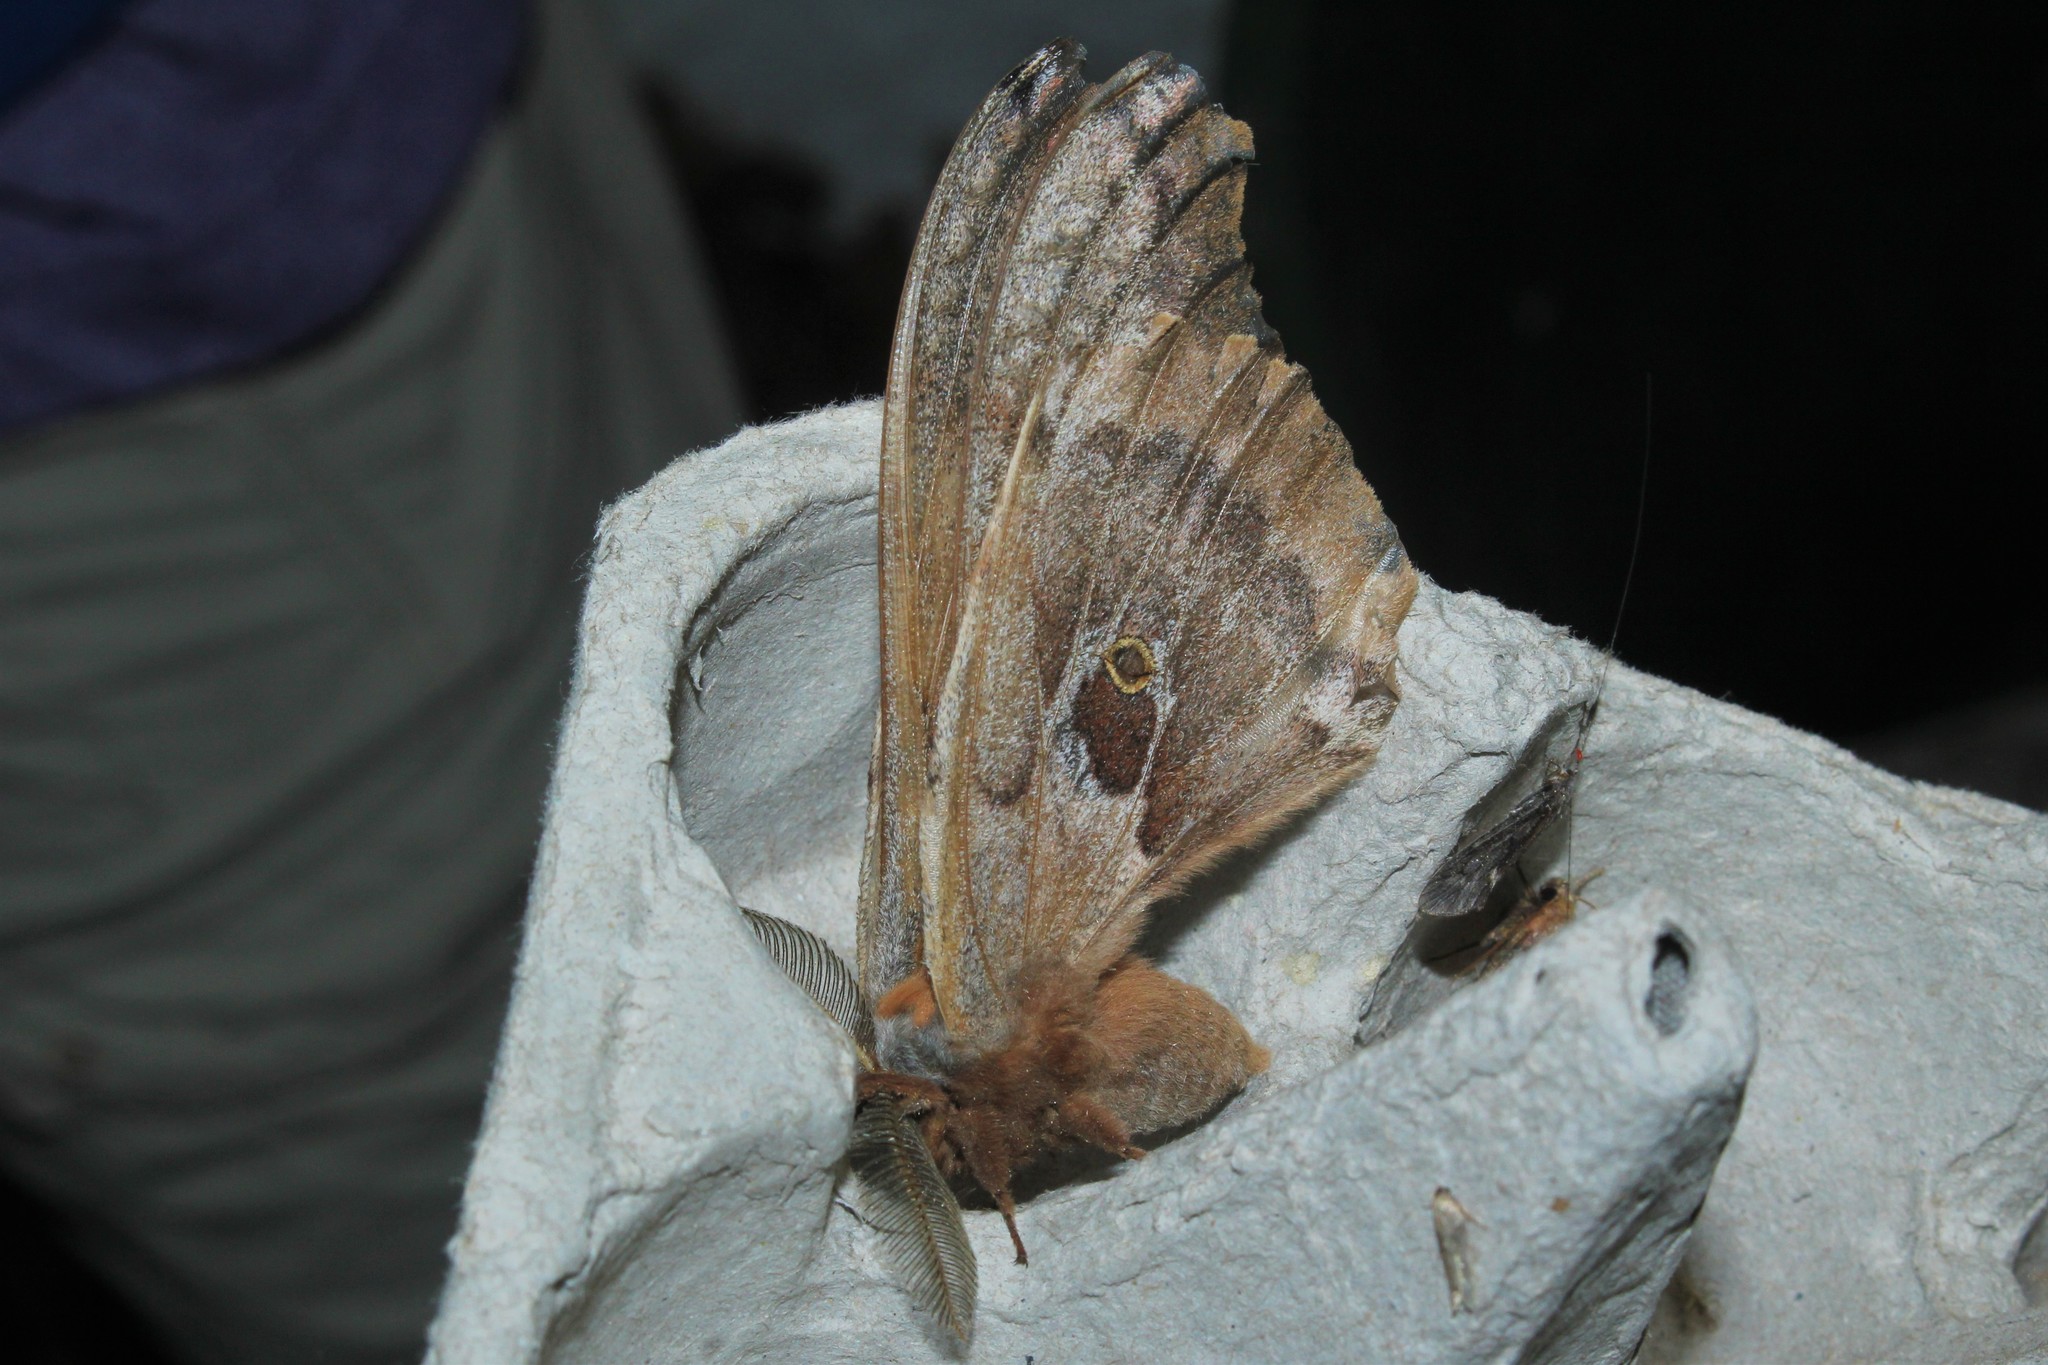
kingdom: Animalia
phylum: Arthropoda
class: Insecta
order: Lepidoptera
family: Saturniidae
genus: Antheraea
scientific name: Antheraea polyphemus
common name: Polyphemus moth
